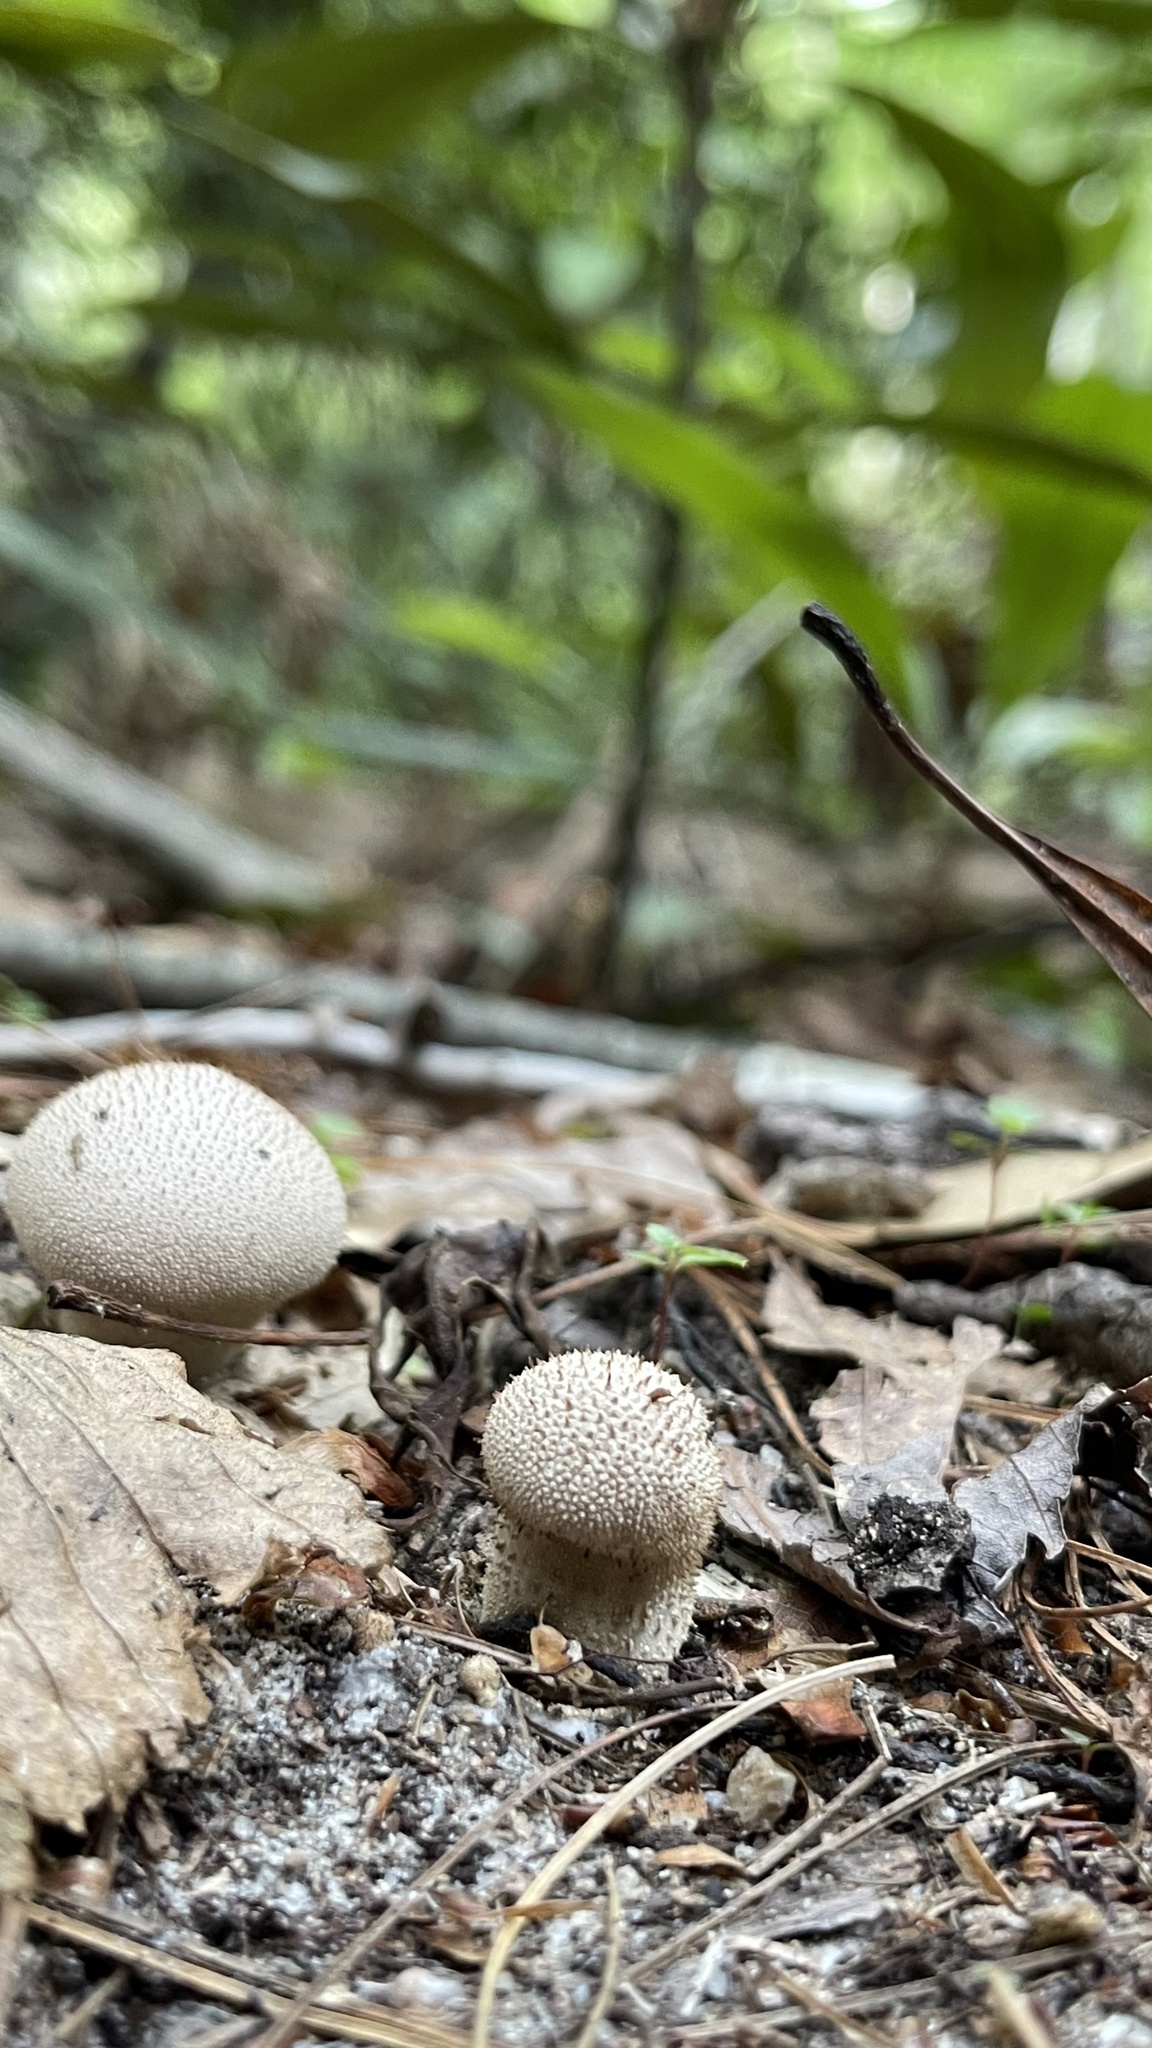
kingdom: Fungi
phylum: Basidiomycota
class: Agaricomycetes
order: Agaricales
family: Lycoperdaceae
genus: Lycoperdon
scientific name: Lycoperdon perlatum
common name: Common puffball
